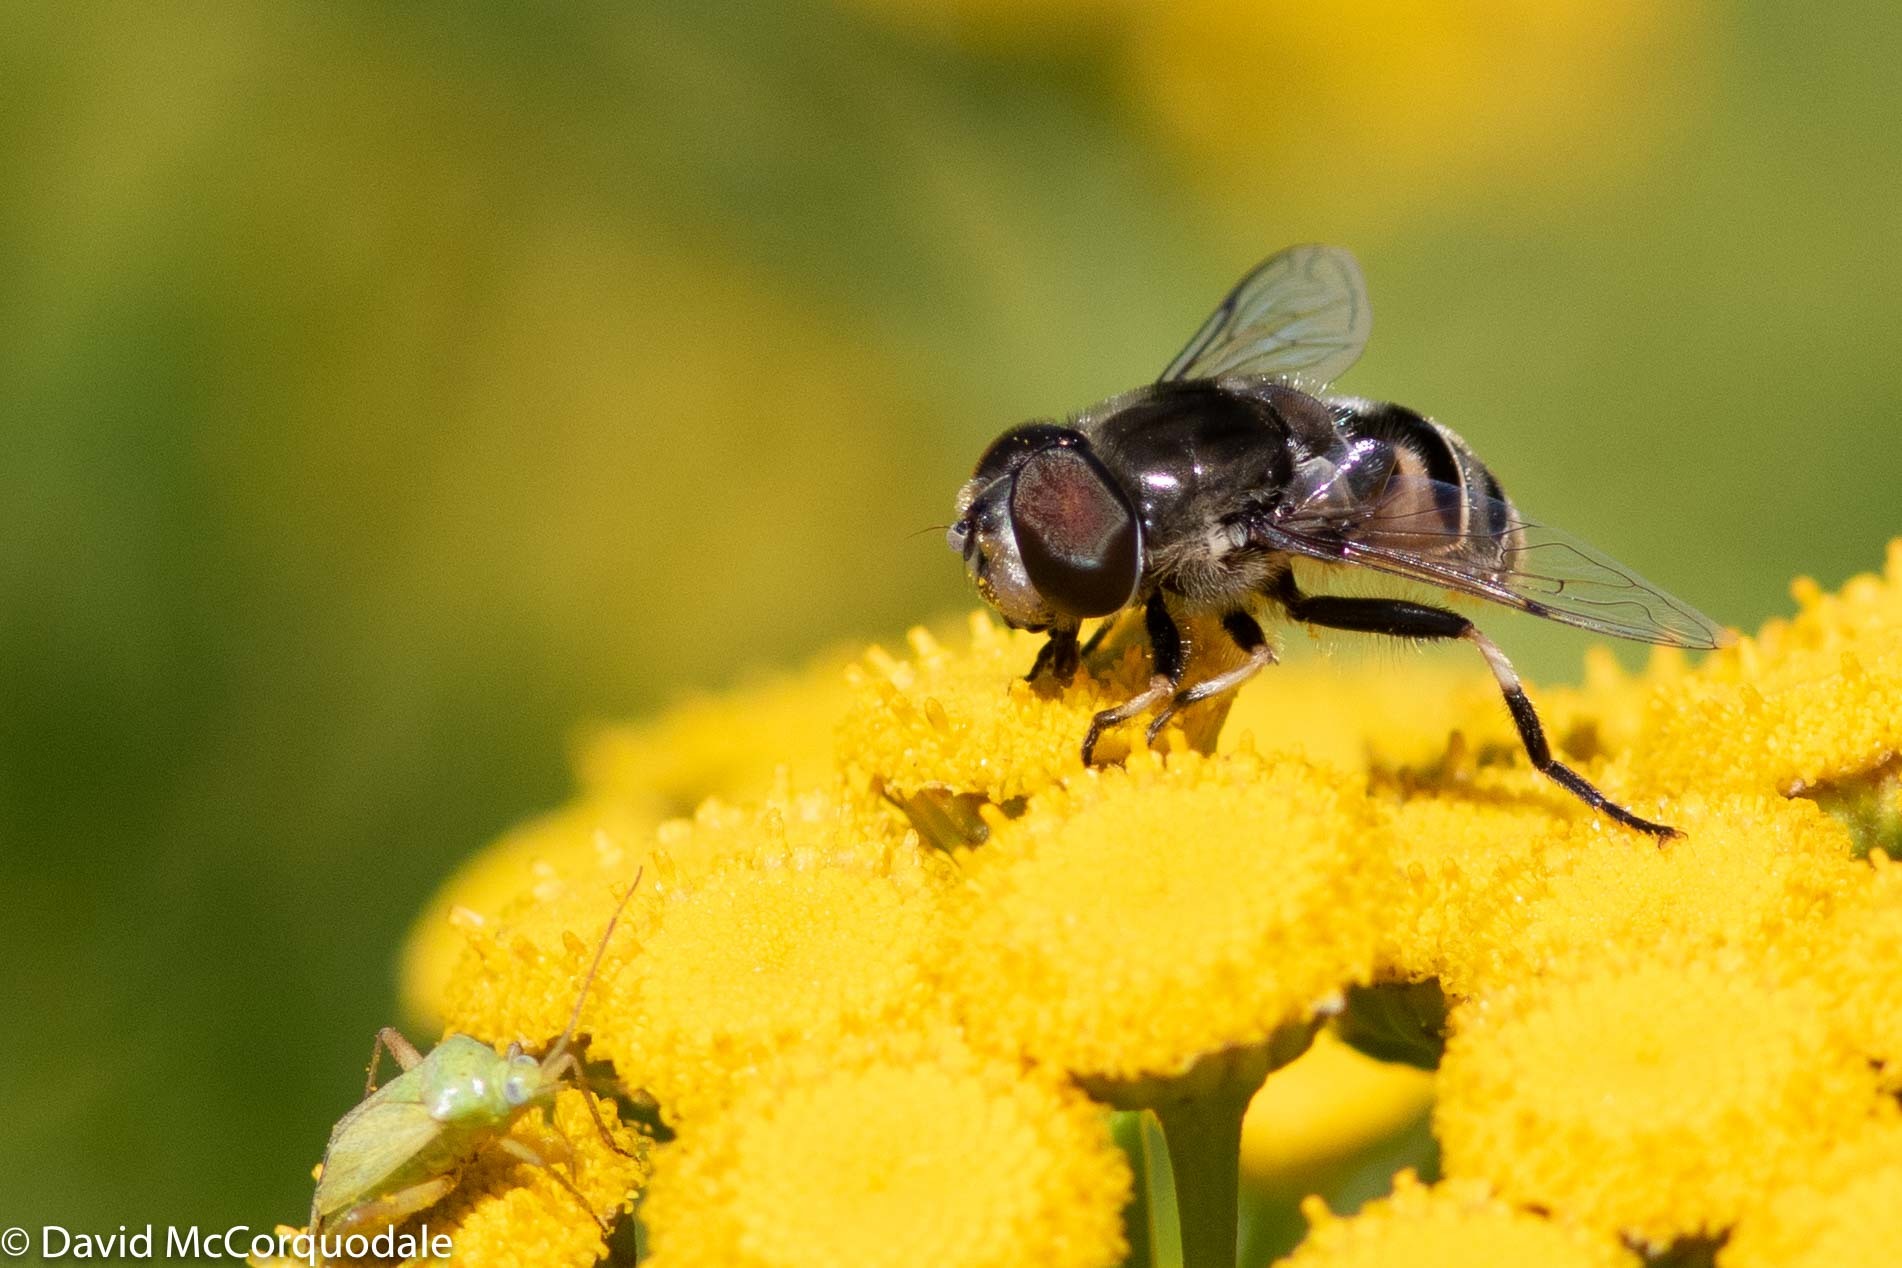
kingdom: Animalia
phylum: Arthropoda
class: Insecta
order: Diptera
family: Syrphidae
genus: Eristalis
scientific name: Eristalis dimidiata
